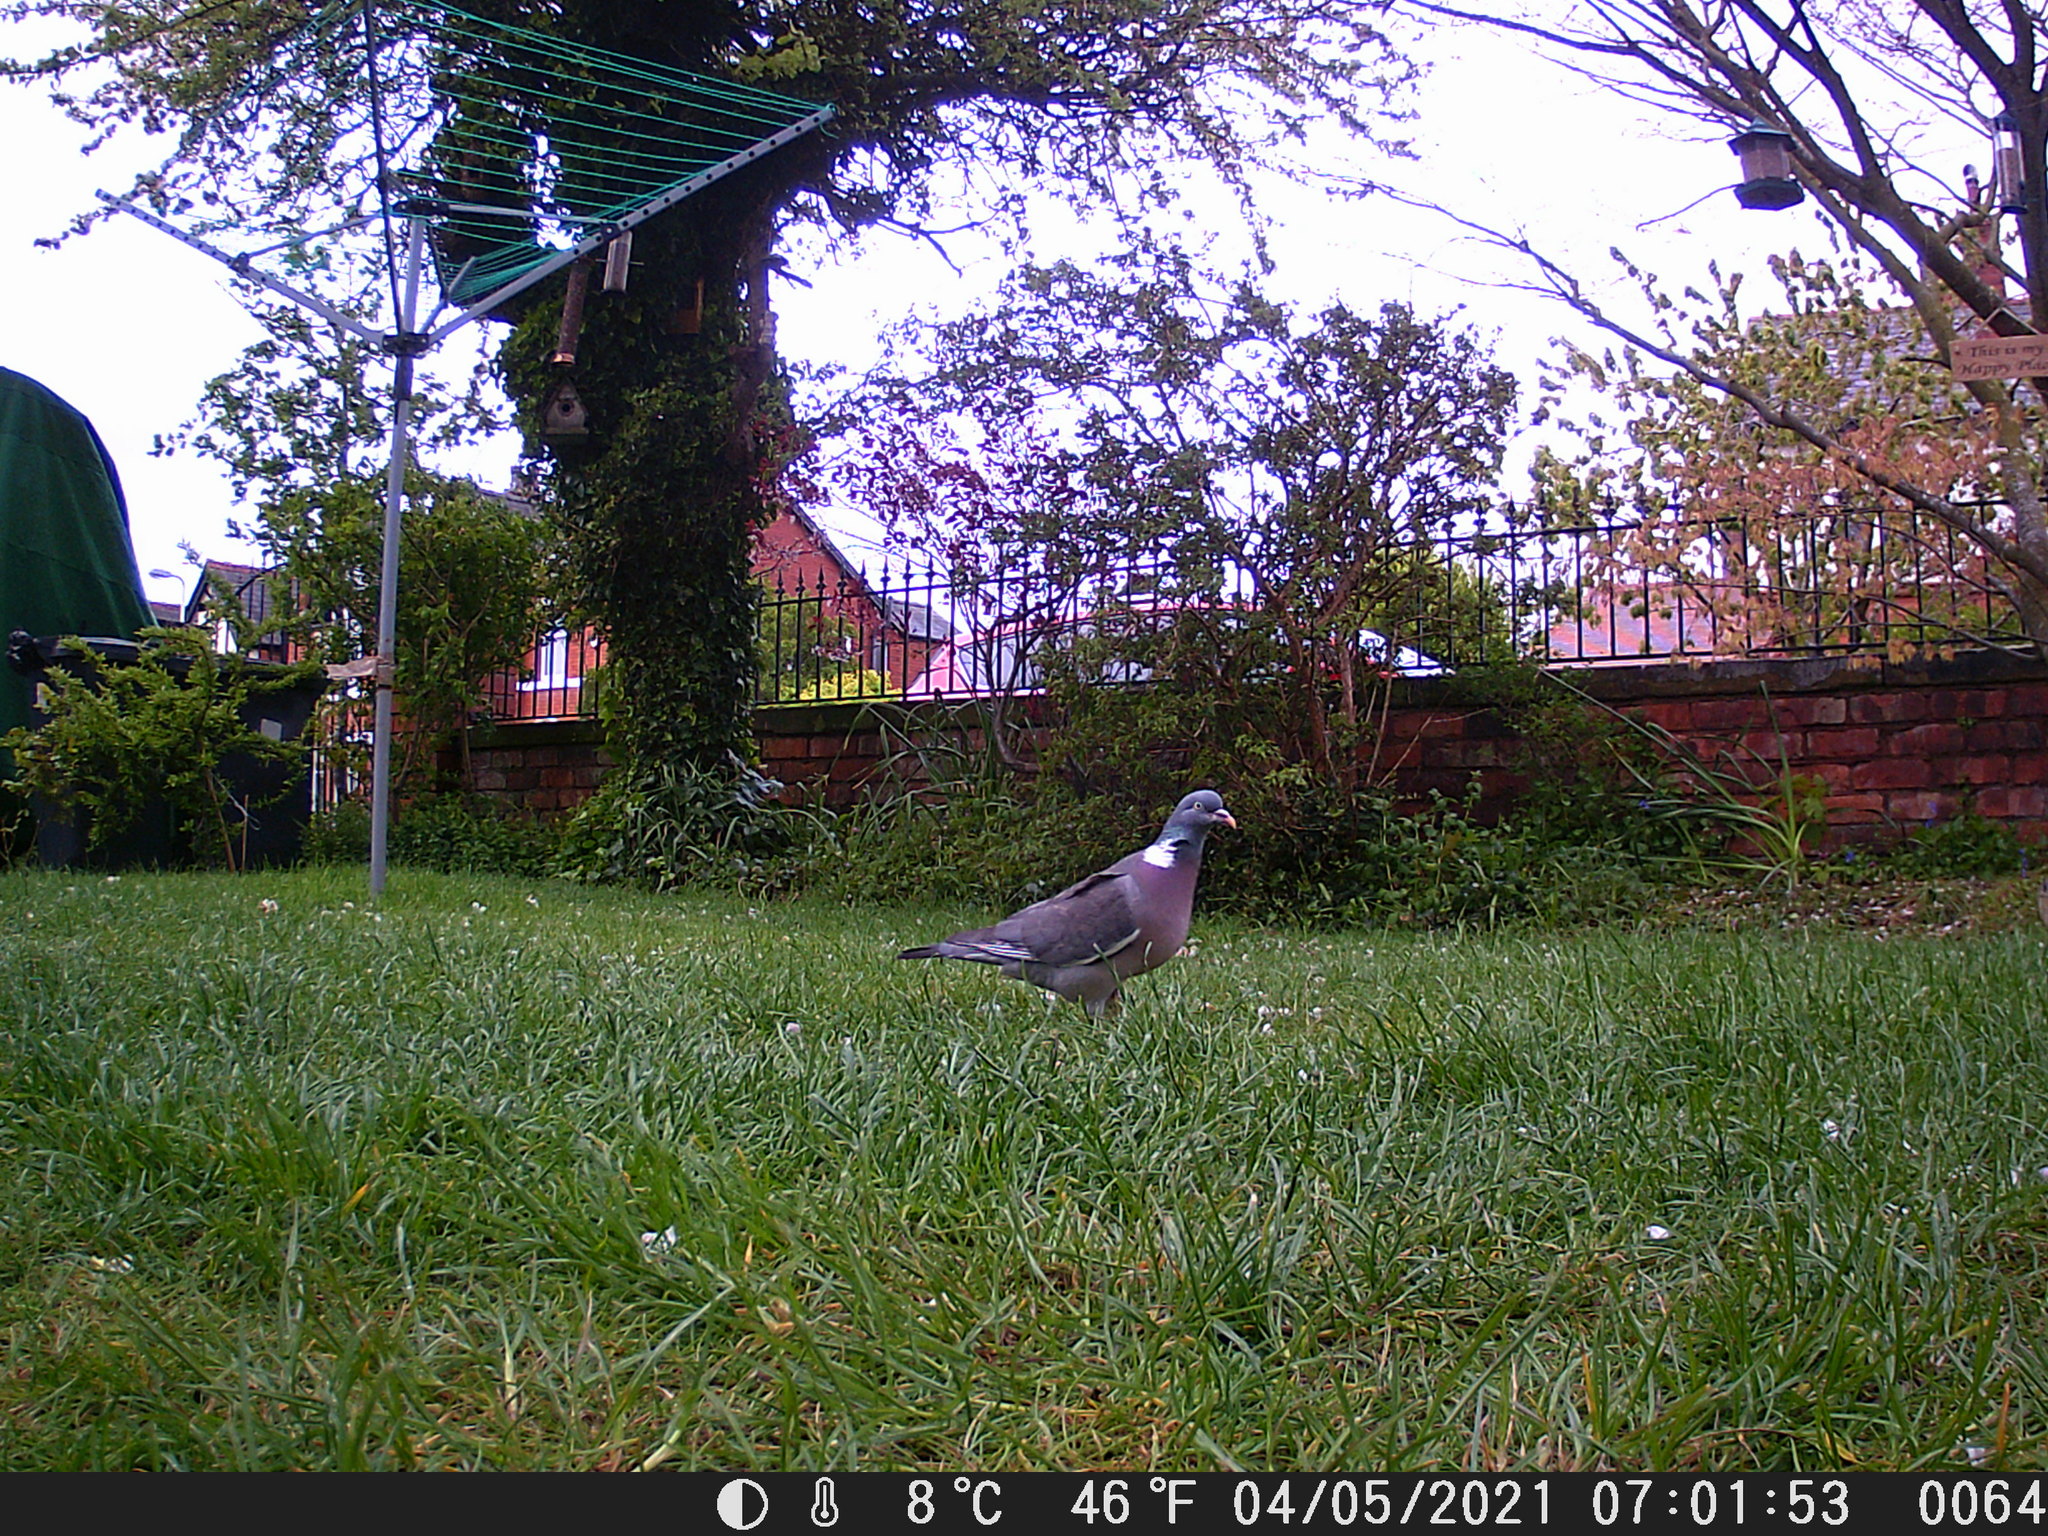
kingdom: Animalia
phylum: Chordata
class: Aves
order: Columbiformes
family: Columbidae
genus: Columba
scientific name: Columba palumbus
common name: Common wood pigeon
